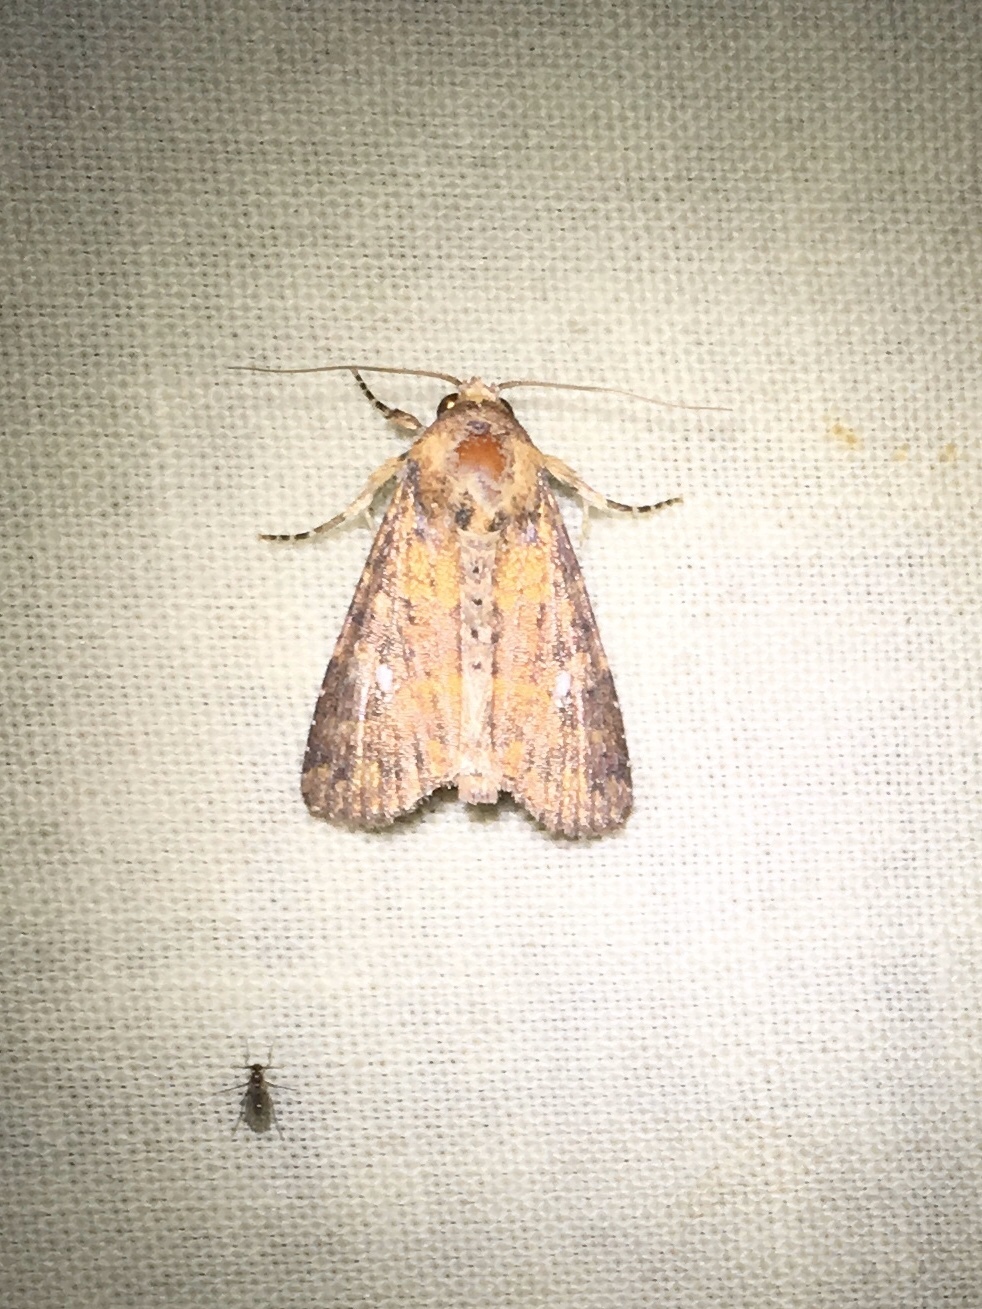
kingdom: Animalia
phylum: Arthropoda
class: Insecta
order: Lepidoptera
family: Noctuidae
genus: Condica
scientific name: Condica mobilis
